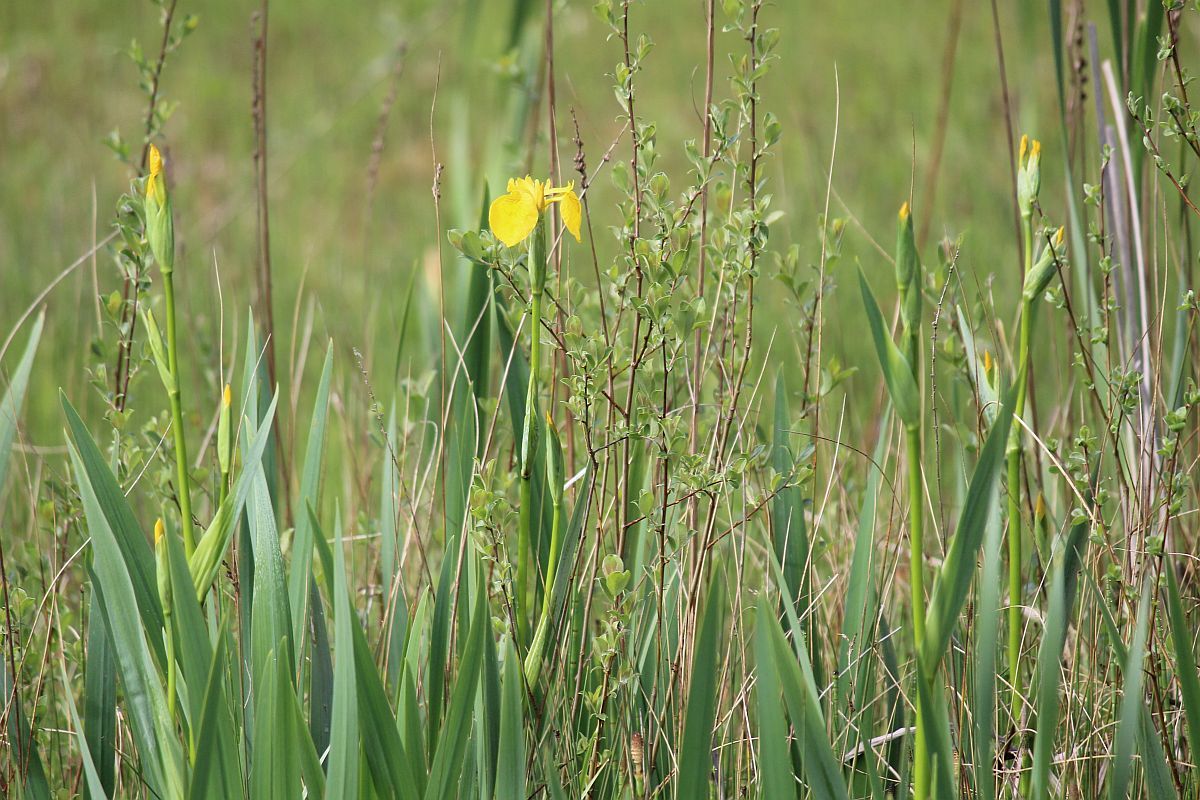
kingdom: Plantae
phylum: Tracheophyta
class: Liliopsida
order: Asparagales
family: Iridaceae
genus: Iris
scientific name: Iris pseudacorus
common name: Yellow flag
